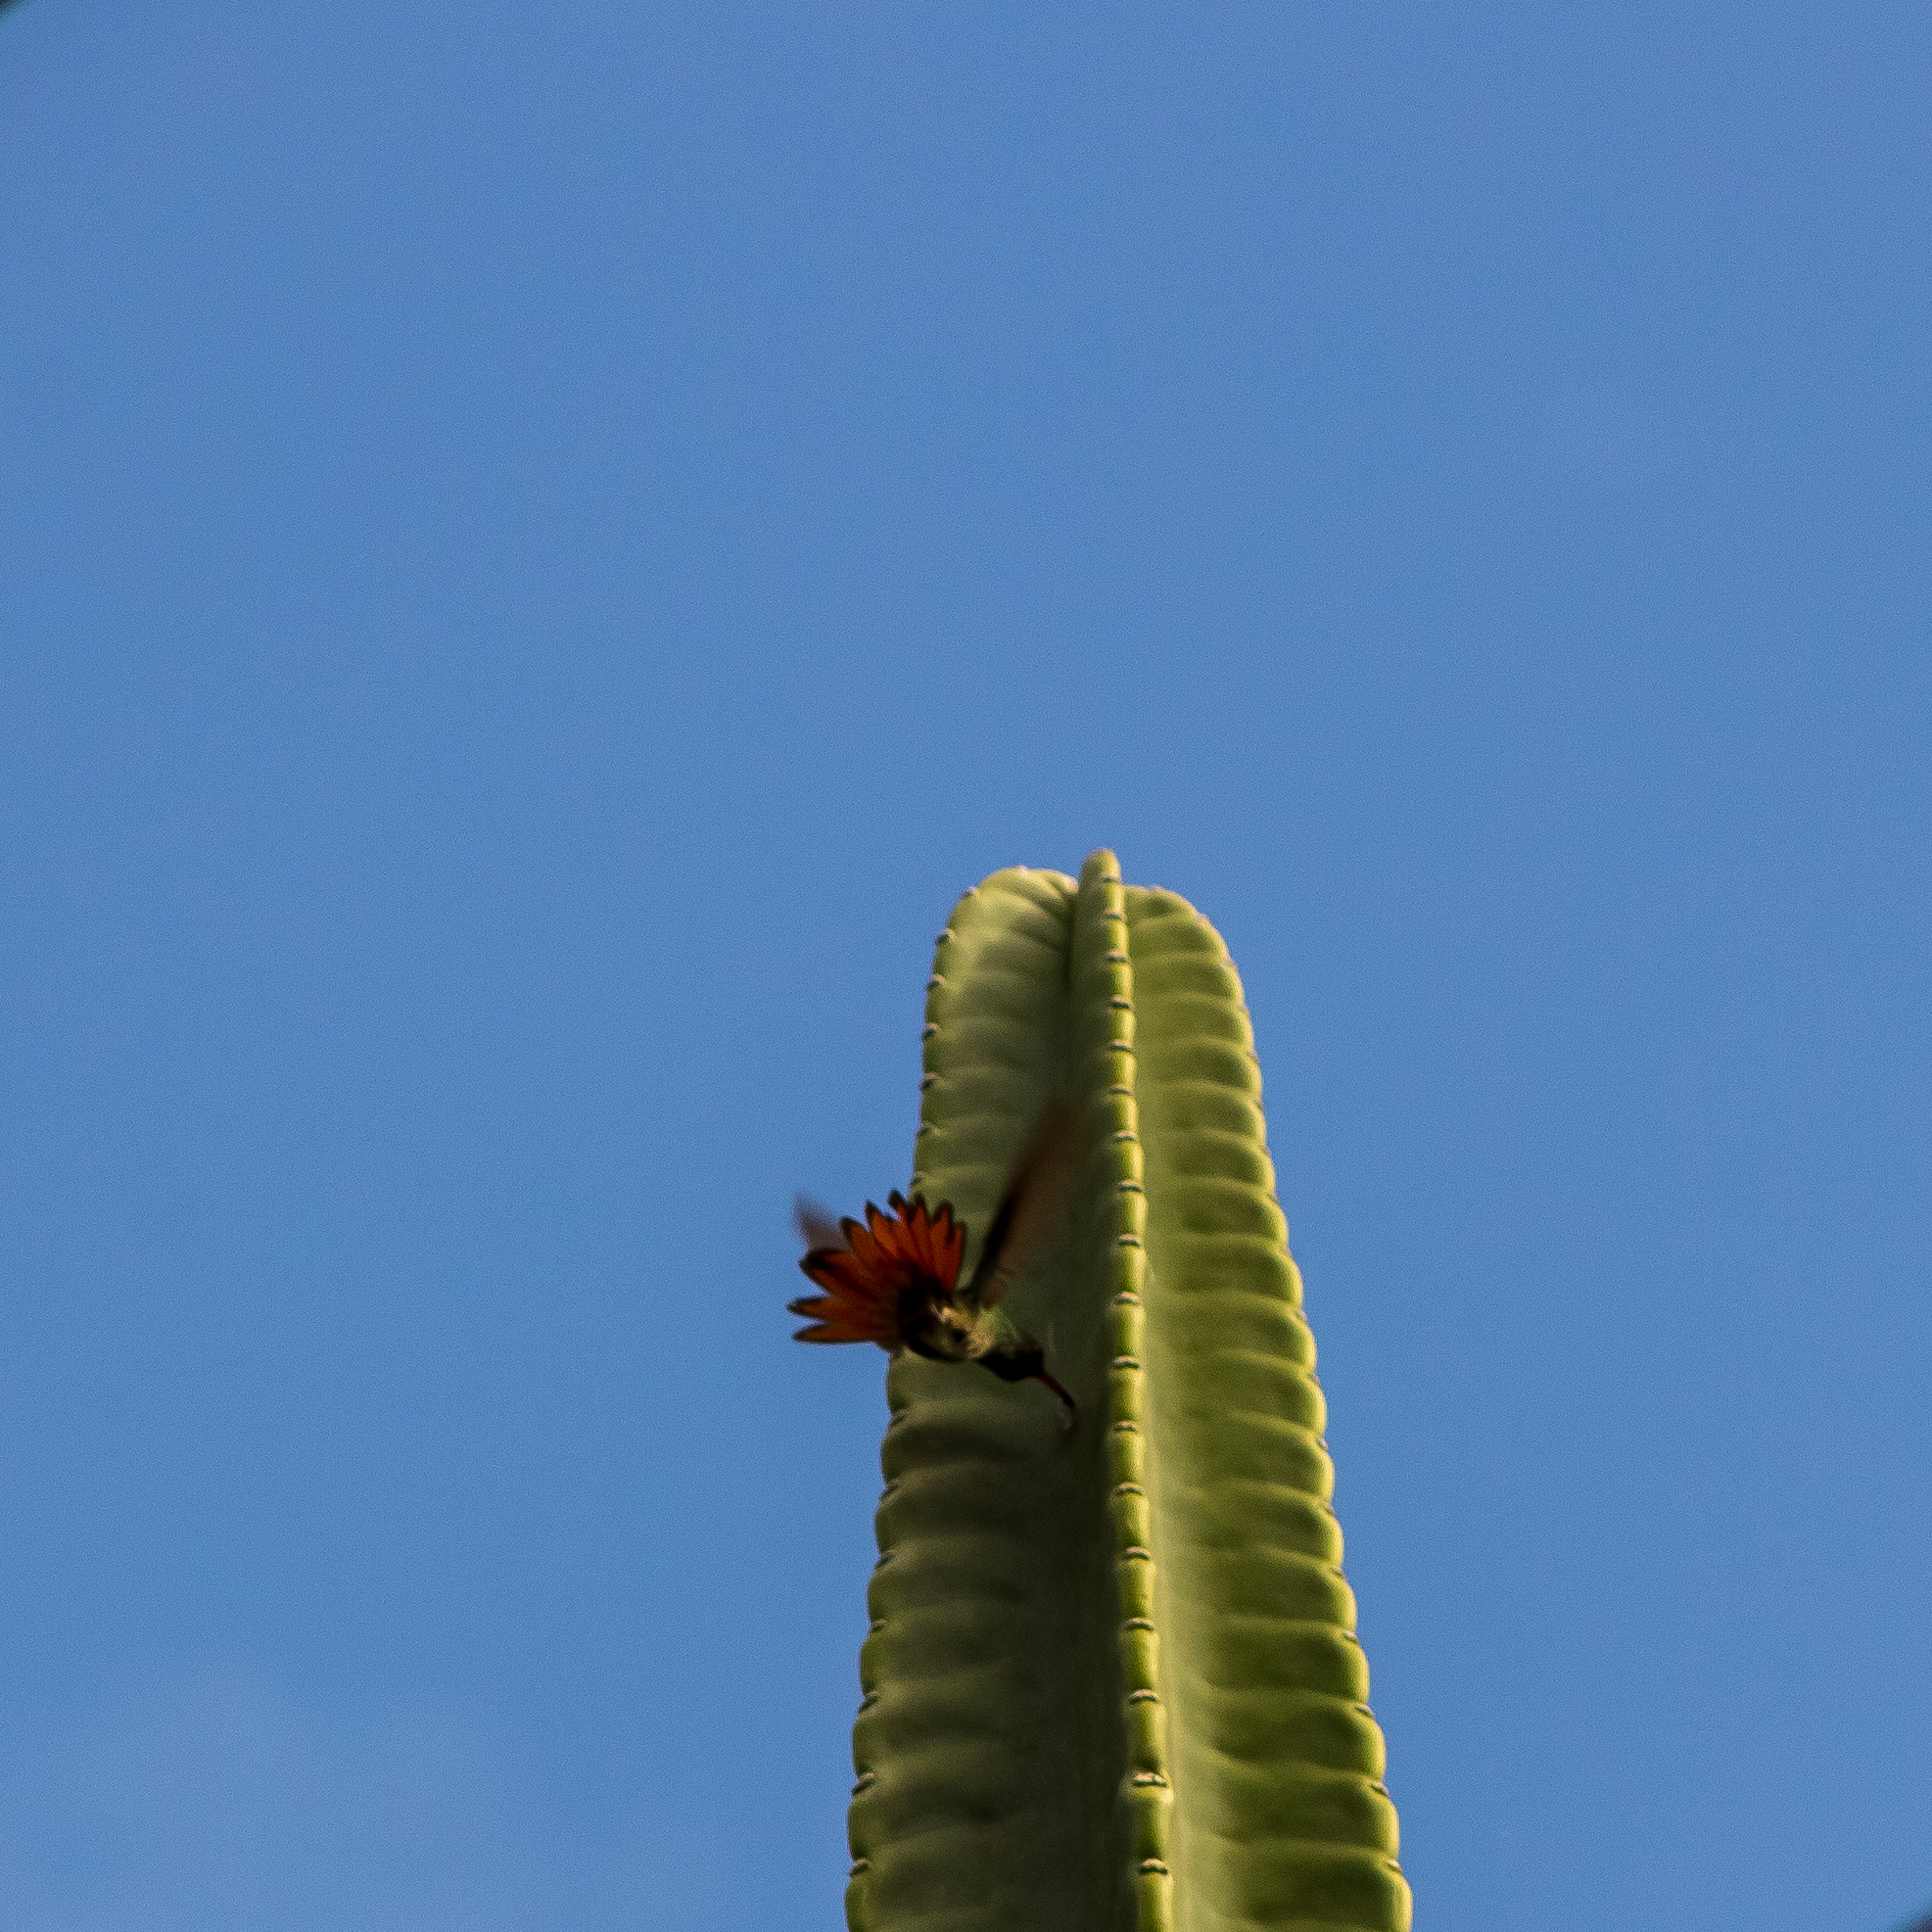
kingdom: Animalia
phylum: Chordata
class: Aves
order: Apodiformes
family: Trochilidae
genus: Amazilia
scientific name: Amazilia tzacatl
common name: Rufous-tailed hummingbird
